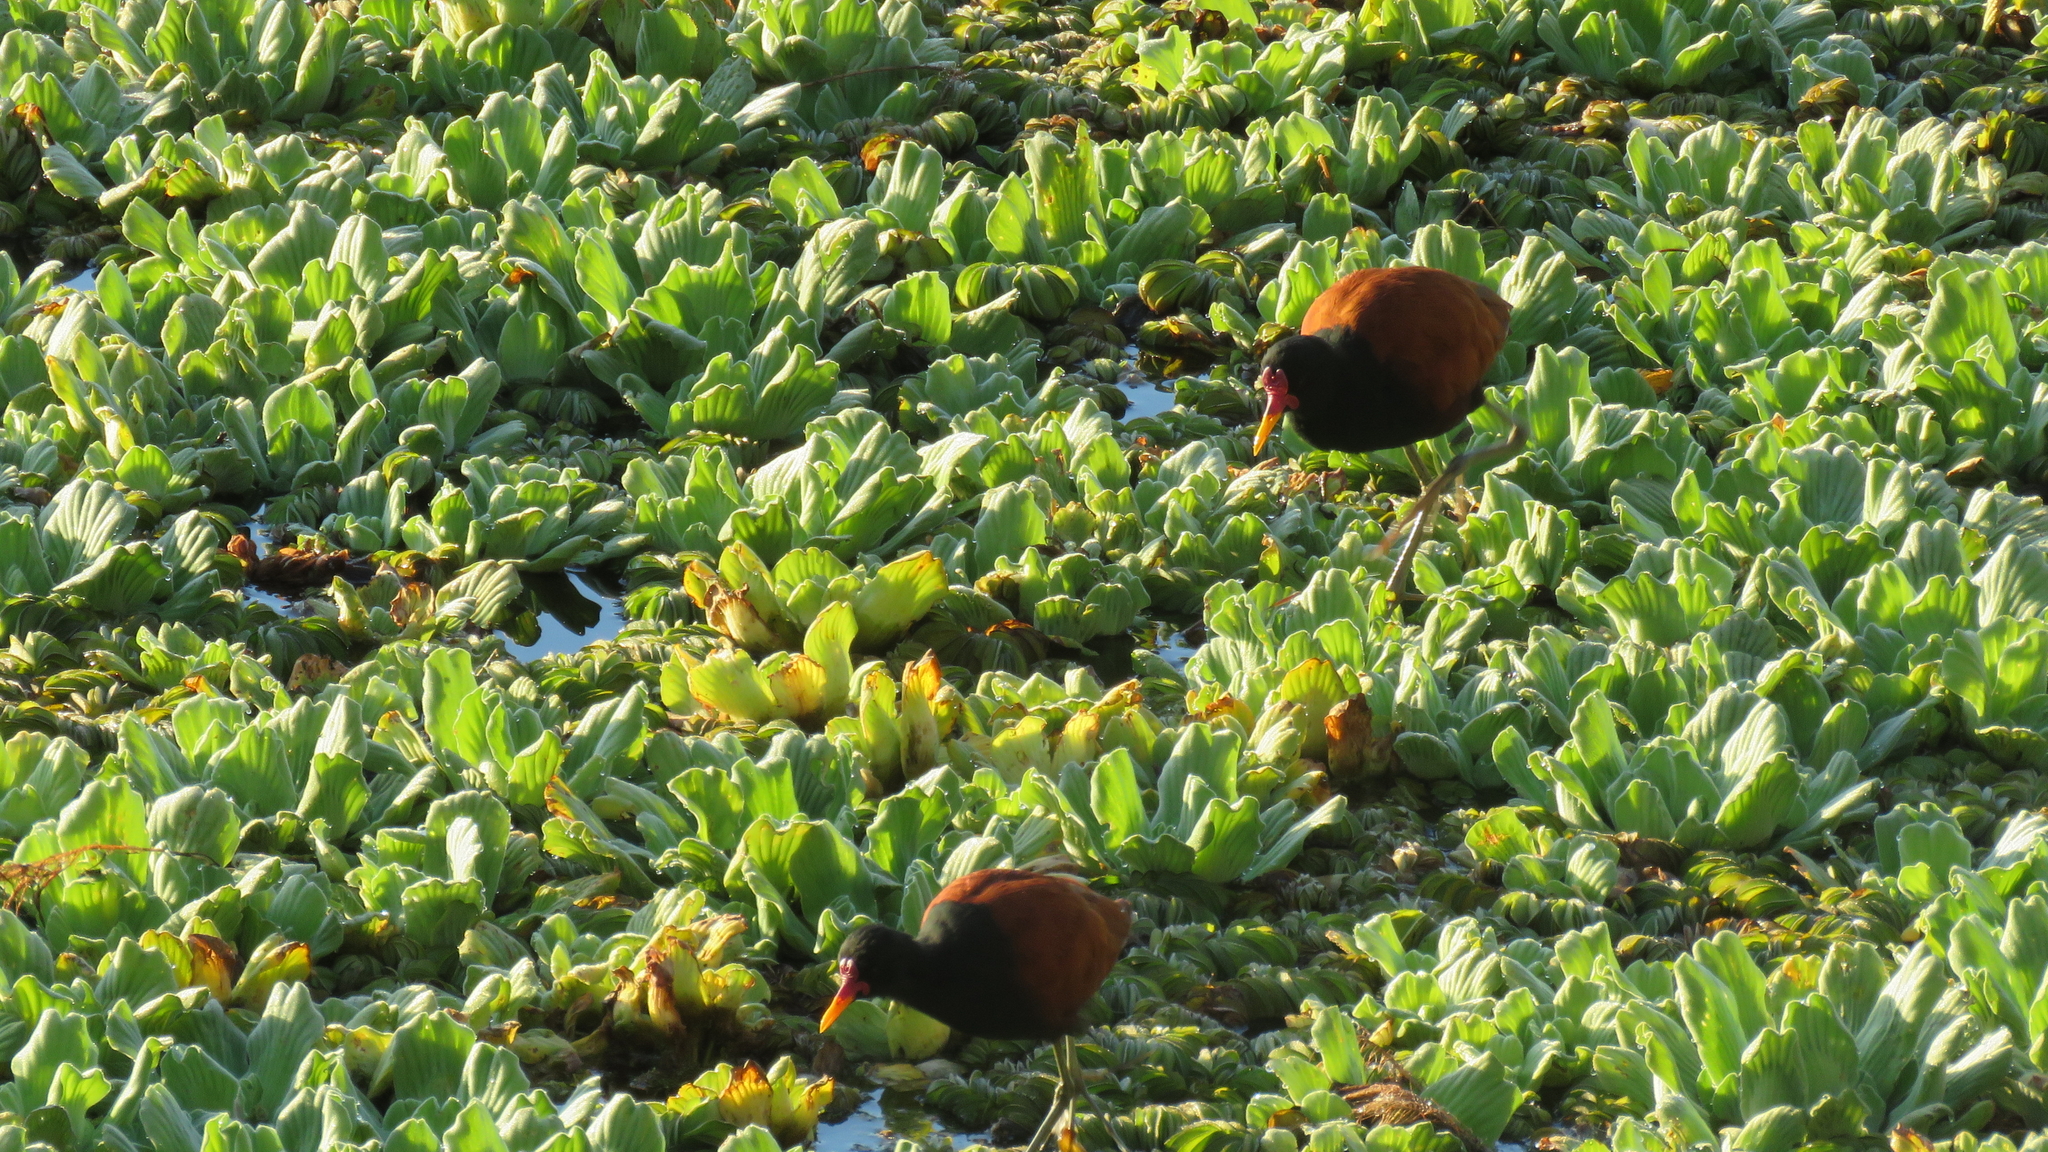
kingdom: Animalia
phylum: Chordata
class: Aves
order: Charadriiformes
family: Jacanidae
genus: Jacana
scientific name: Jacana jacana
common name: Wattled jacana
